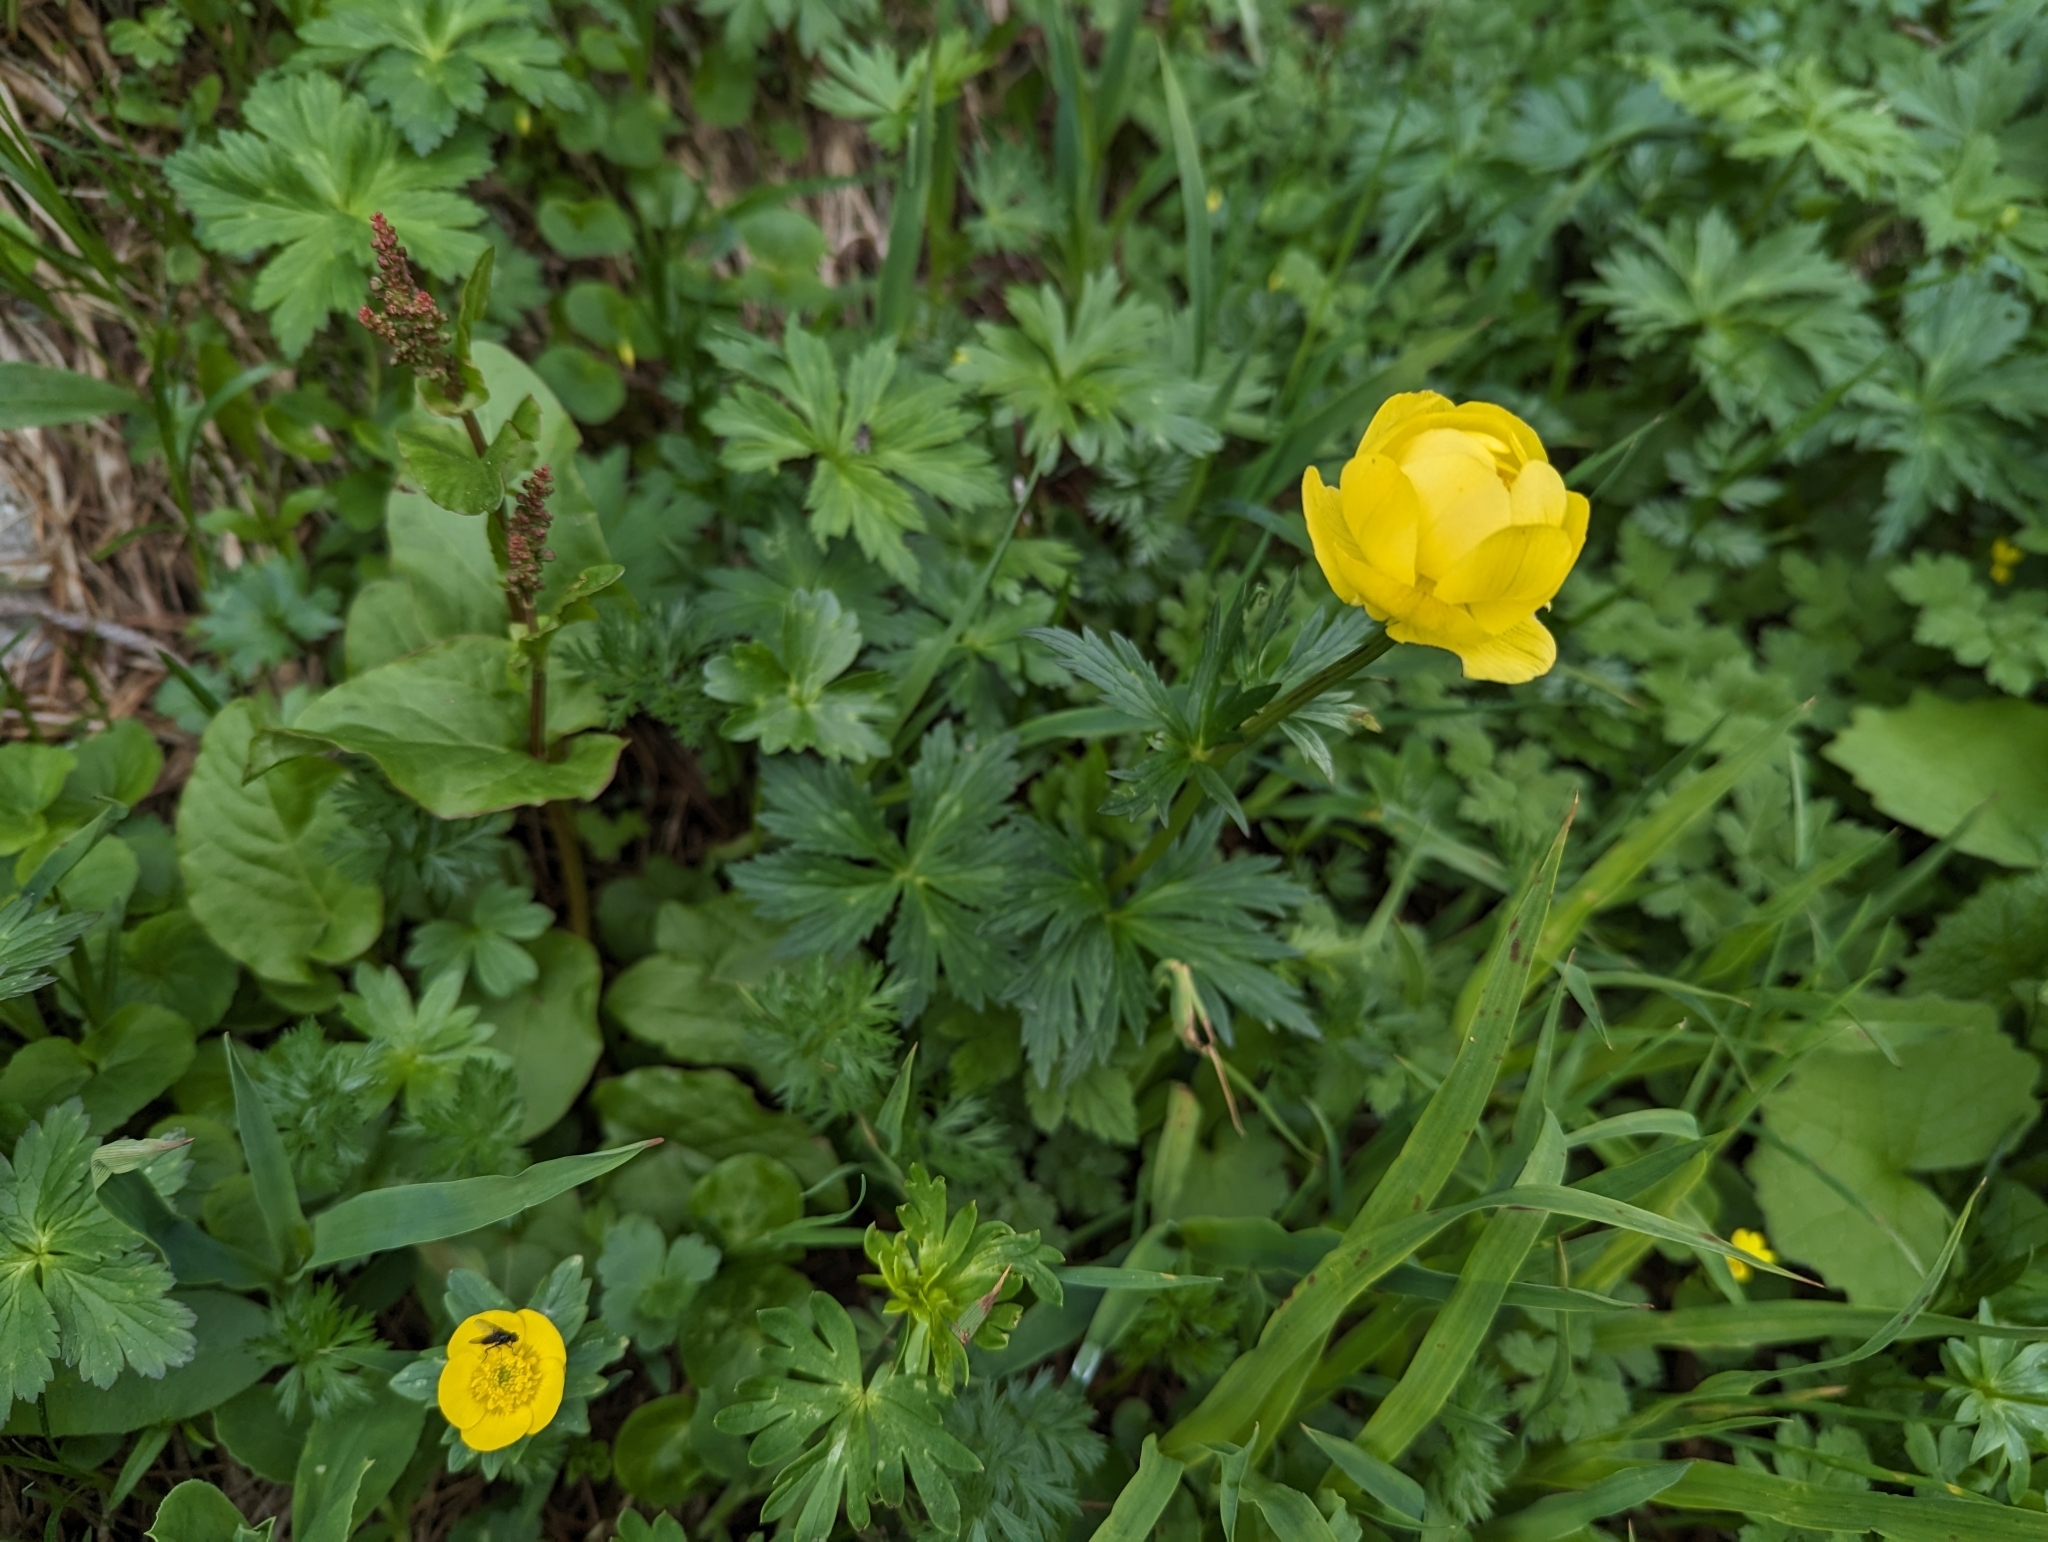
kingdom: Plantae
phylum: Tracheophyta
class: Magnoliopsida
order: Ranunculales
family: Ranunculaceae
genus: Trollius
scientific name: Trollius europaeus
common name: European globeflower
